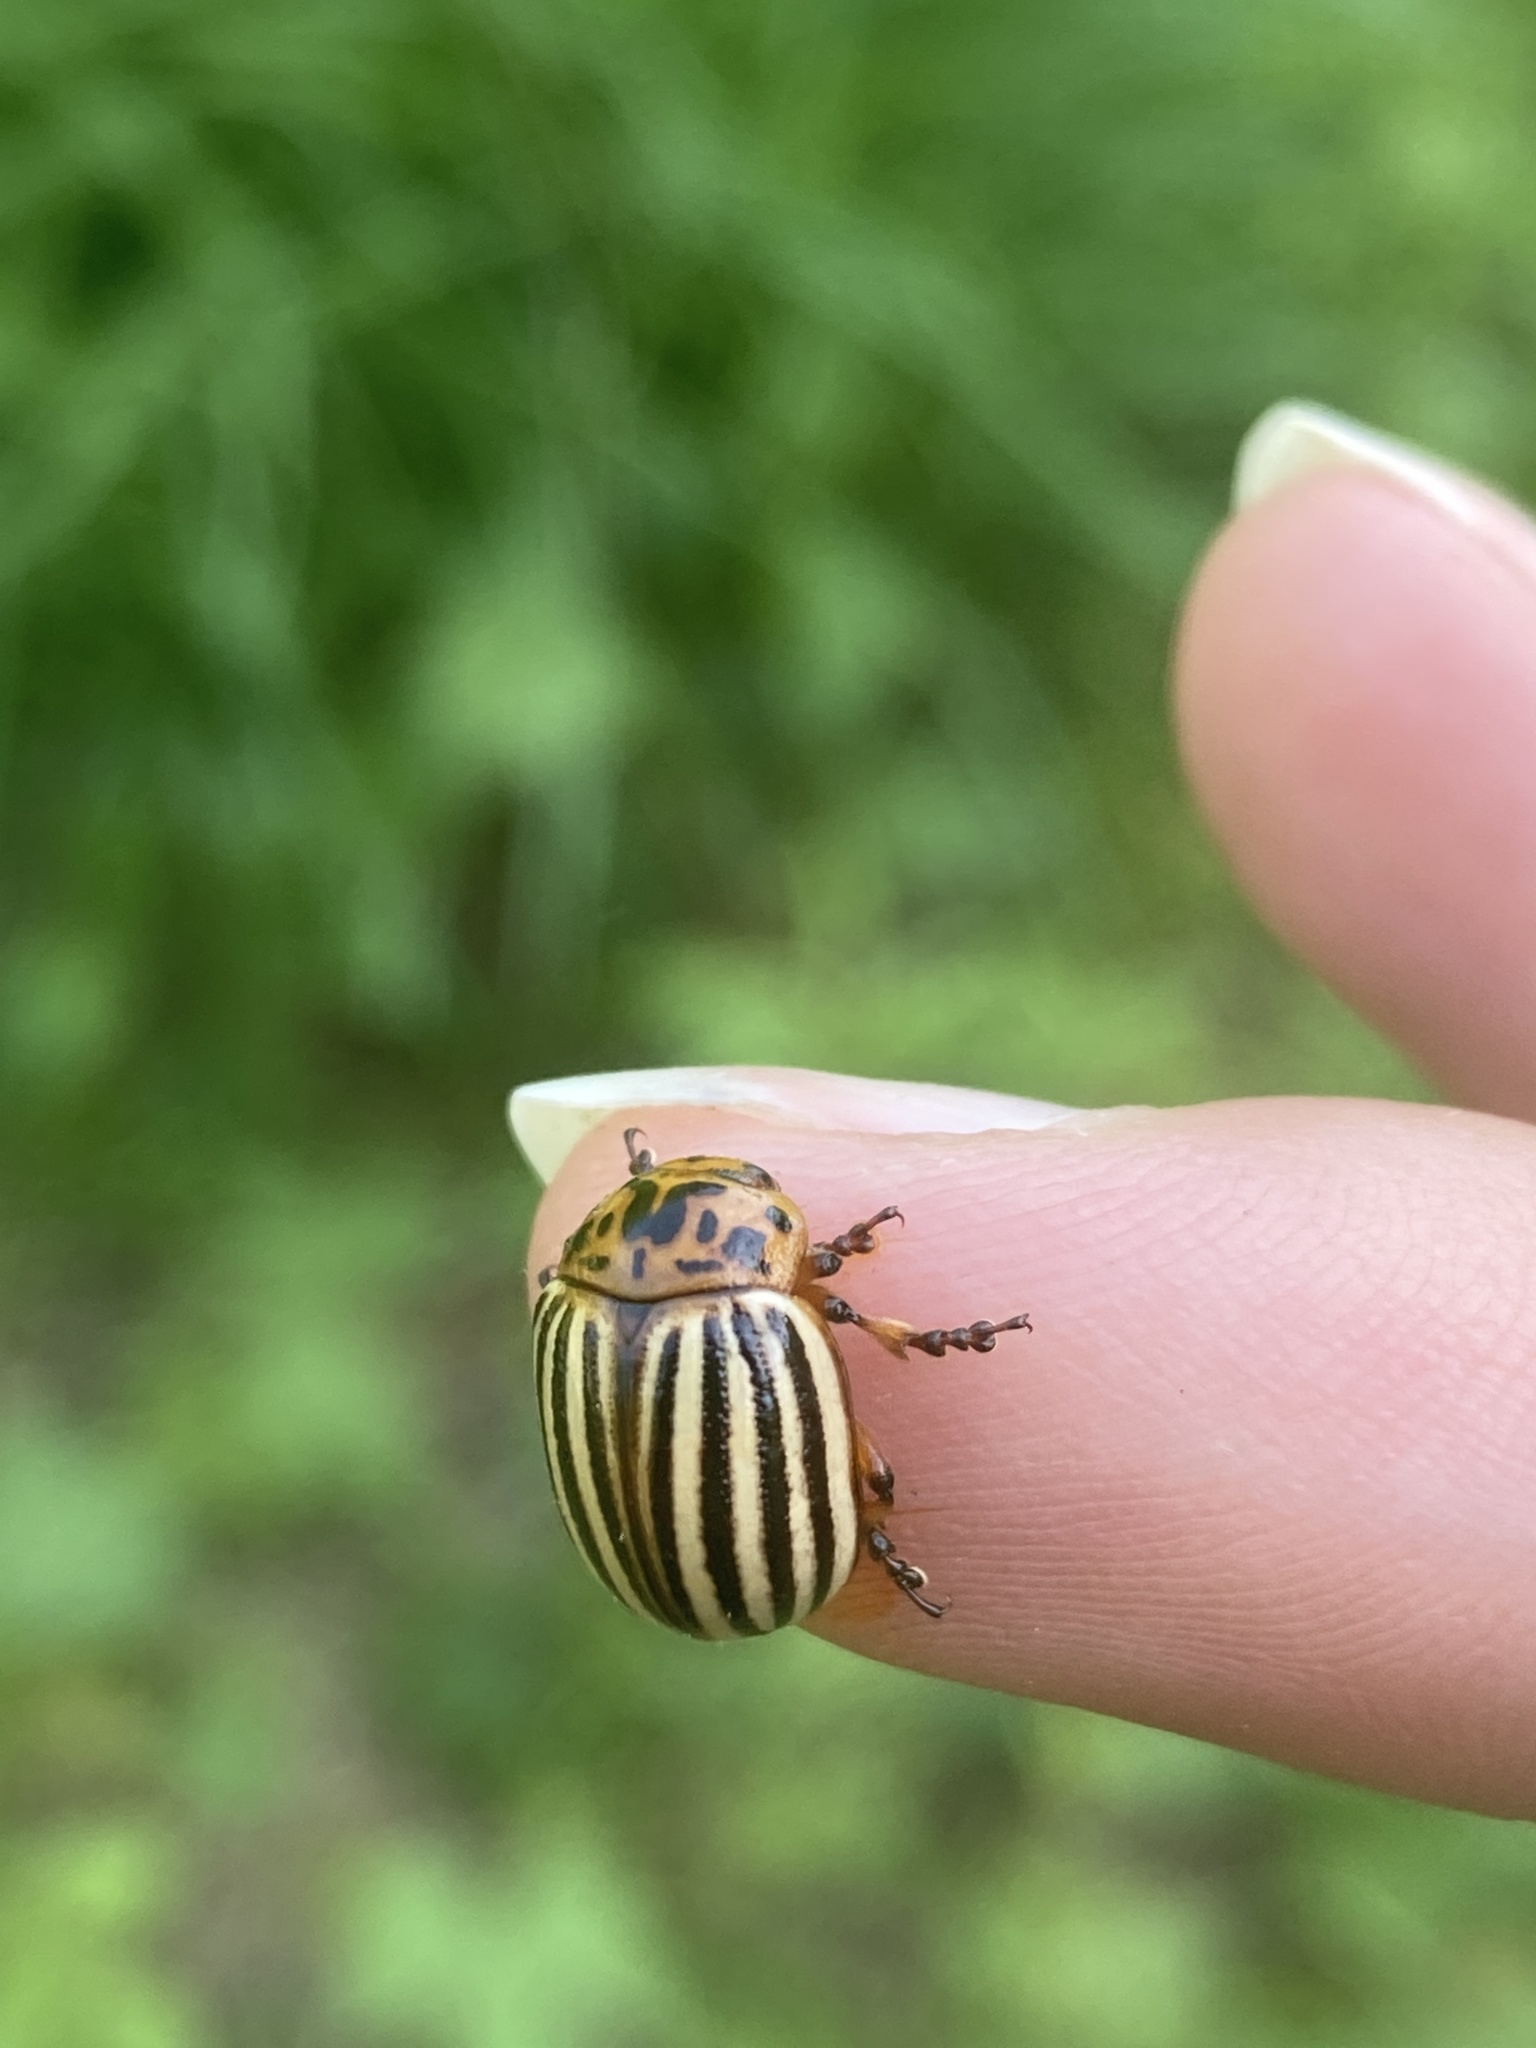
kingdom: Animalia
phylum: Arthropoda
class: Insecta
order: Coleoptera
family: Chrysomelidae
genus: Leptinotarsa
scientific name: Leptinotarsa decemlineata
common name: Colorado potato beetle
